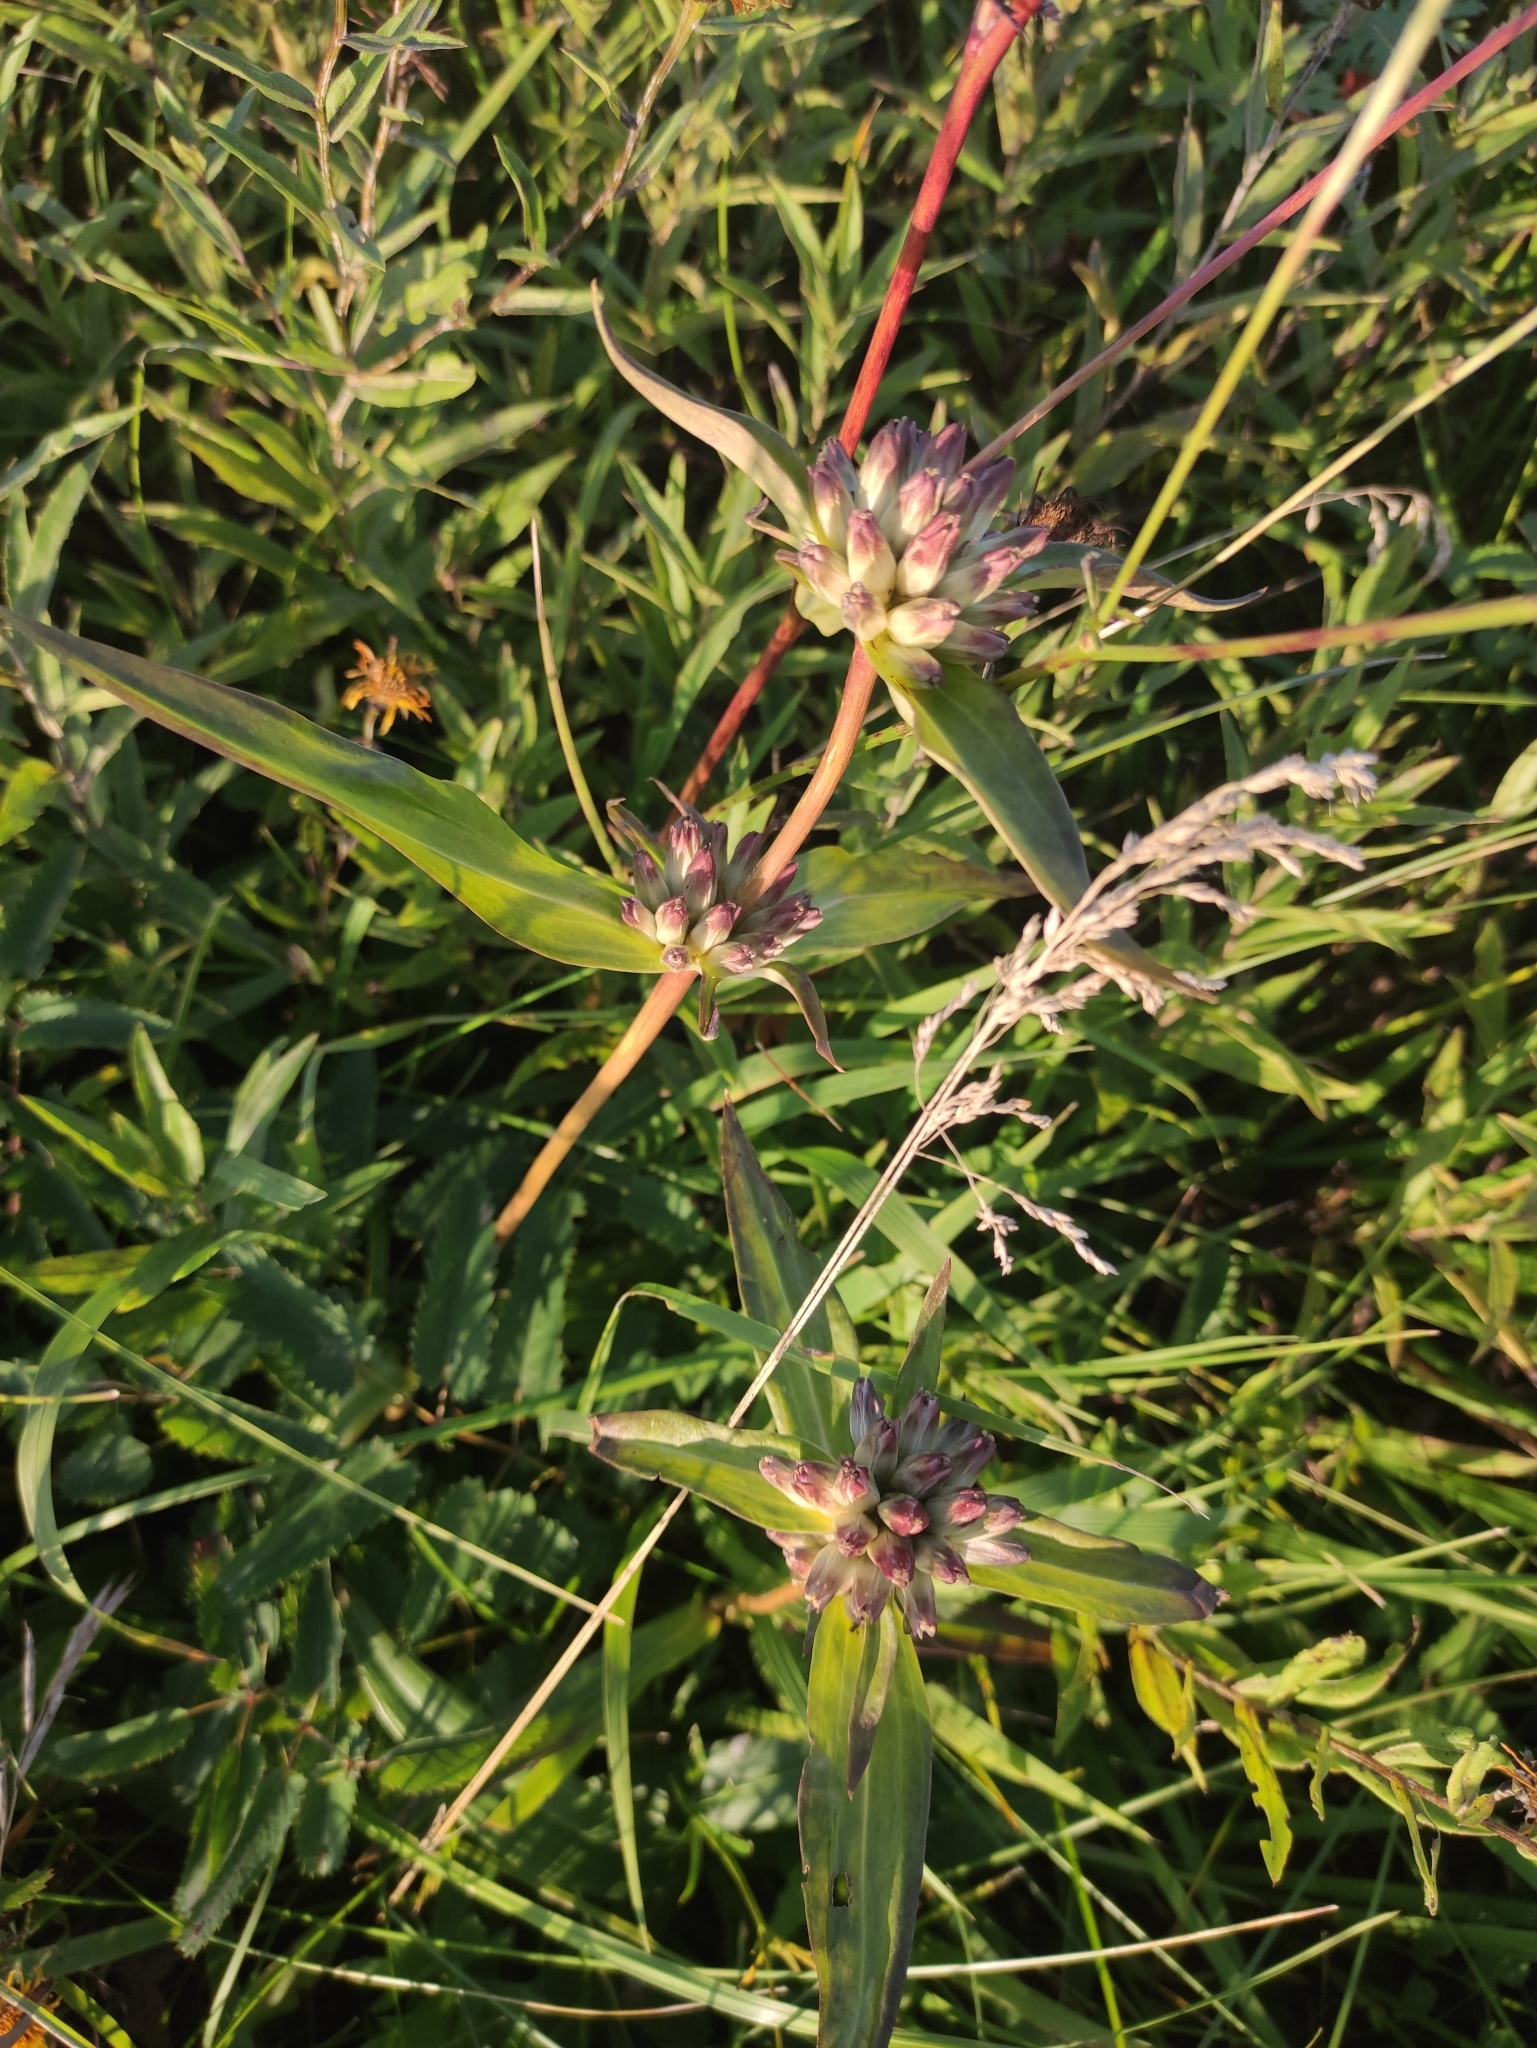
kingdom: Plantae
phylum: Tracheophyta
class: Magnoliopsida
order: Gentianales
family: Gentianaceae
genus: Gentiana
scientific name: Gentiana macrophylla
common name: Large-leaf gentian
